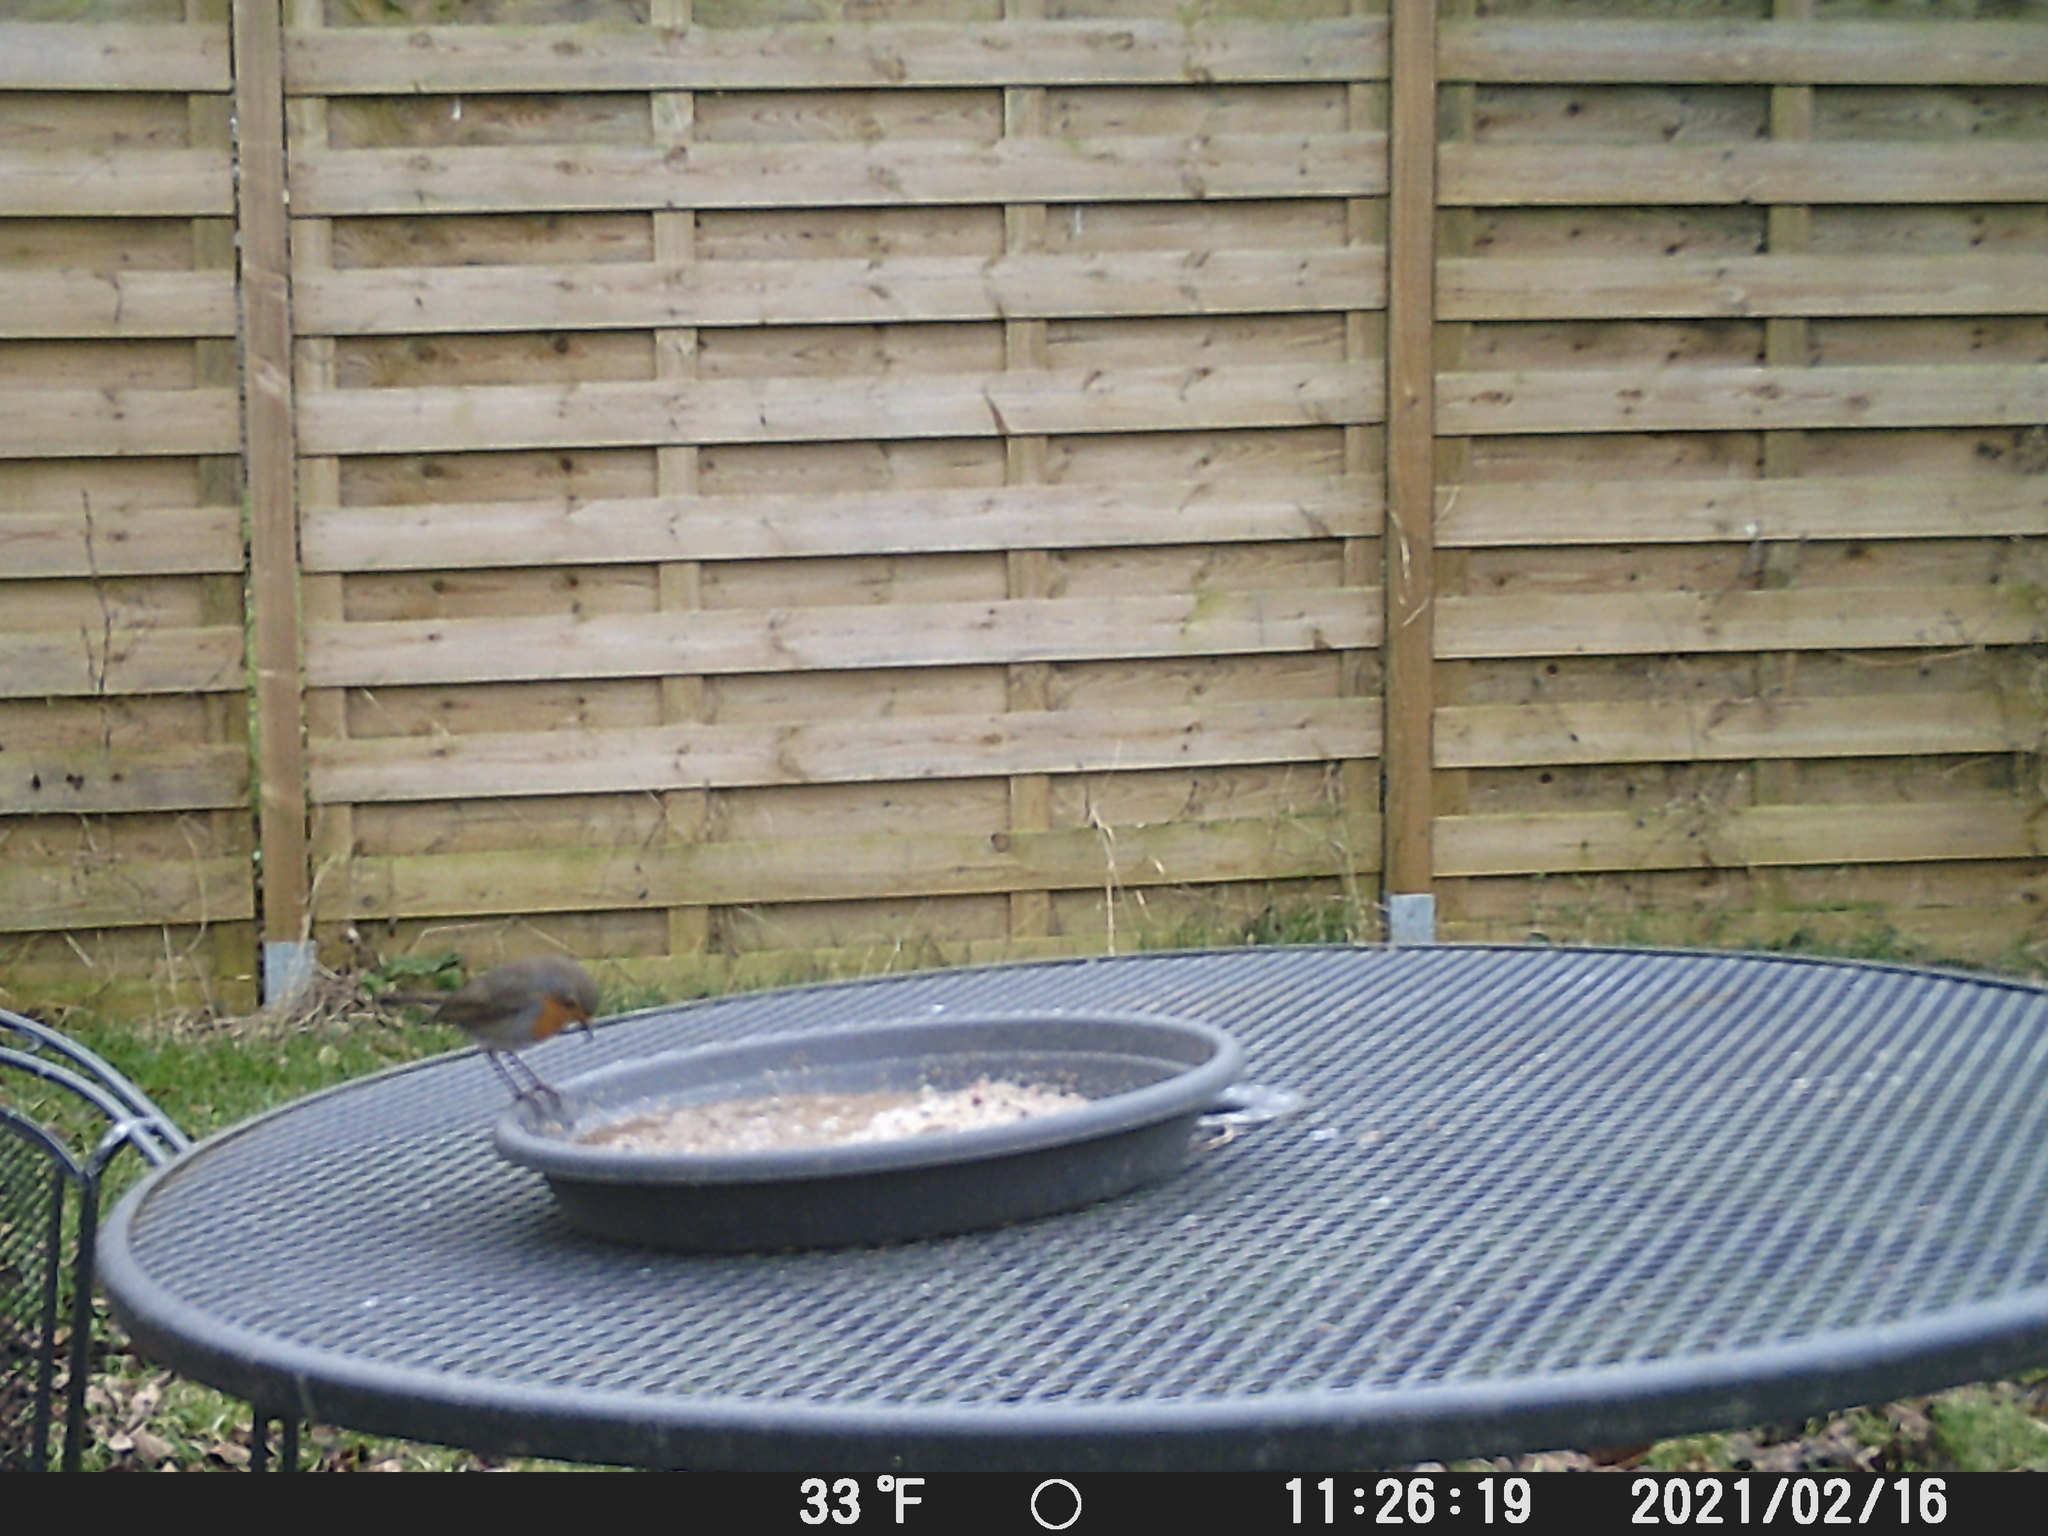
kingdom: Animalia
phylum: Chordata
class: Aves
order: Passeriformes
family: Muscicapidae
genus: Erithacus
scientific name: Erithacus rubecula
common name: European robin
